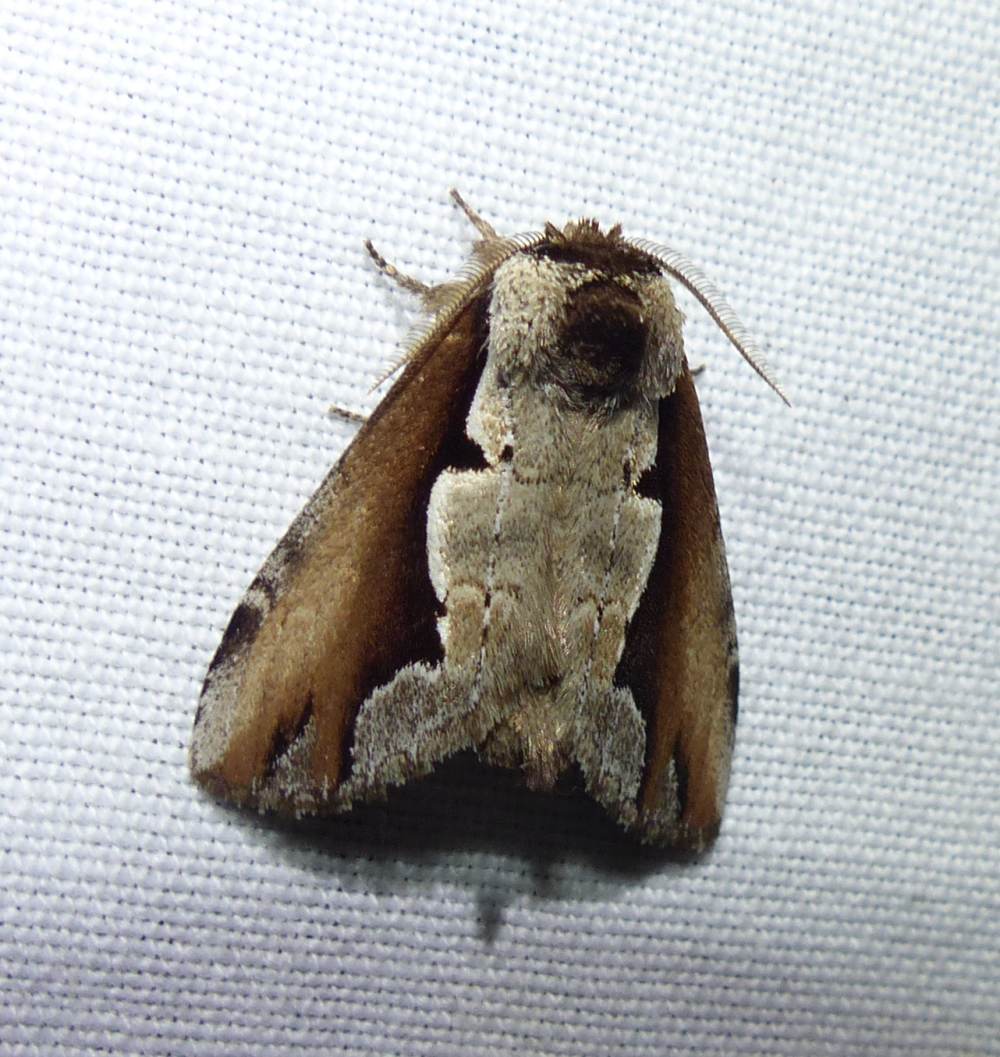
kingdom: Animalia
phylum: Arthropoda
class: Insecta
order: Lepidoptera
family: Notodontidae
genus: Nerice
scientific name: Nerice bidentata
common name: Double-toothed prominent
